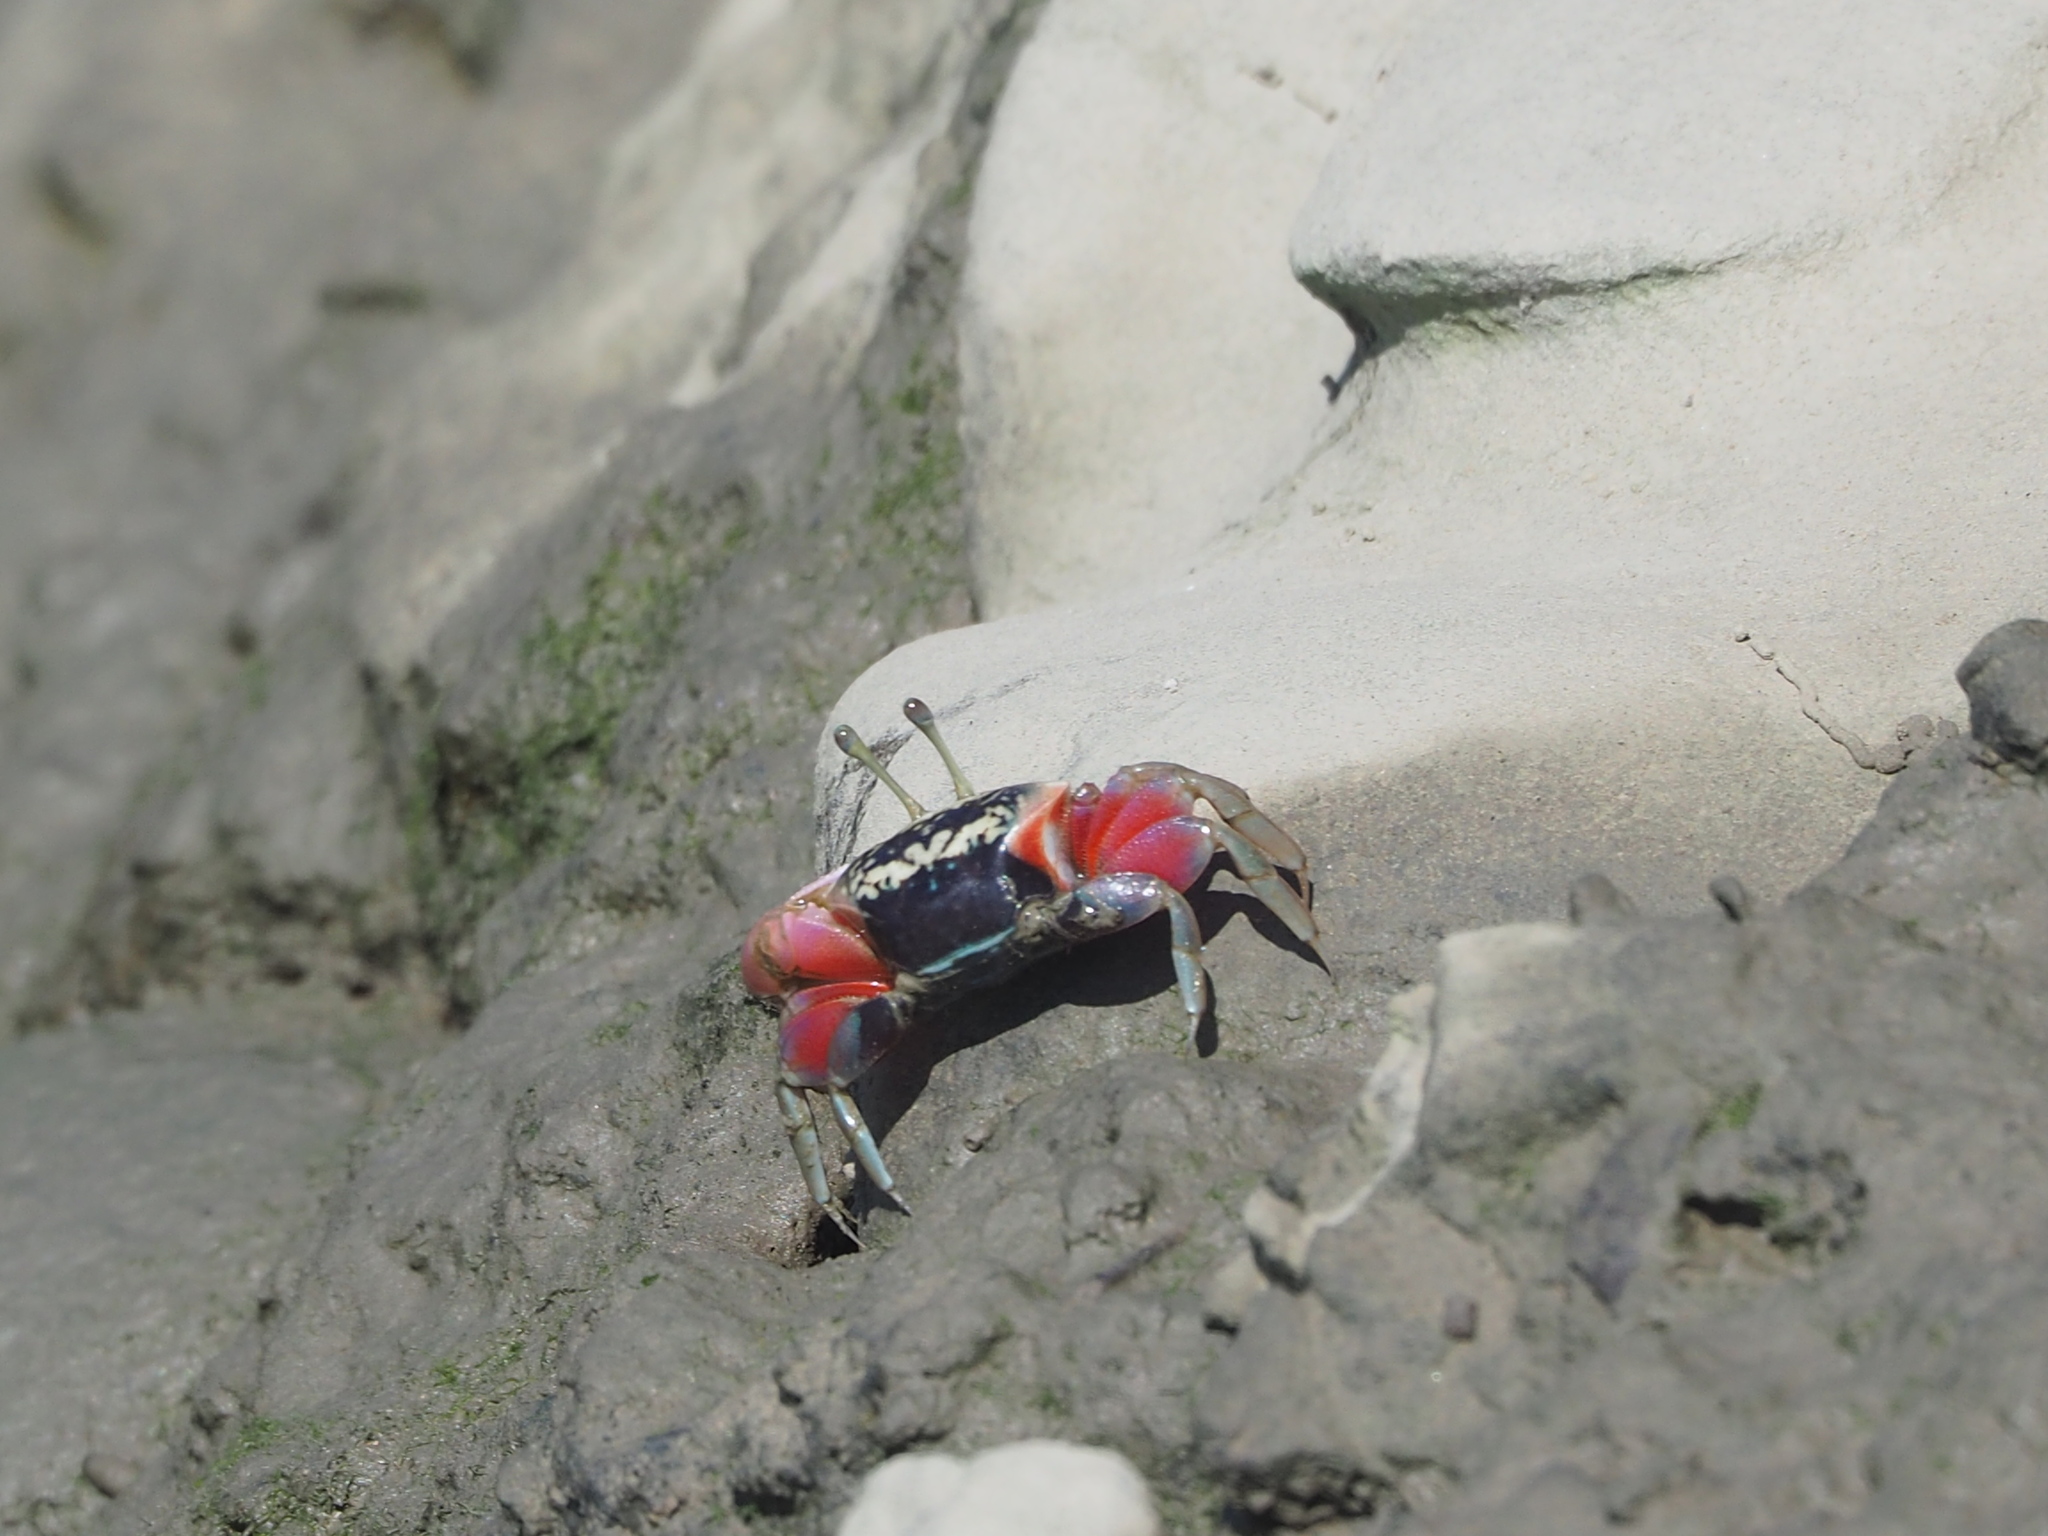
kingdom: Animalia
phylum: Arthropoda
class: Malacostraca
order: Decapoda
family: Ocypodidae
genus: Tubuca
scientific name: Tubuca arcuata
